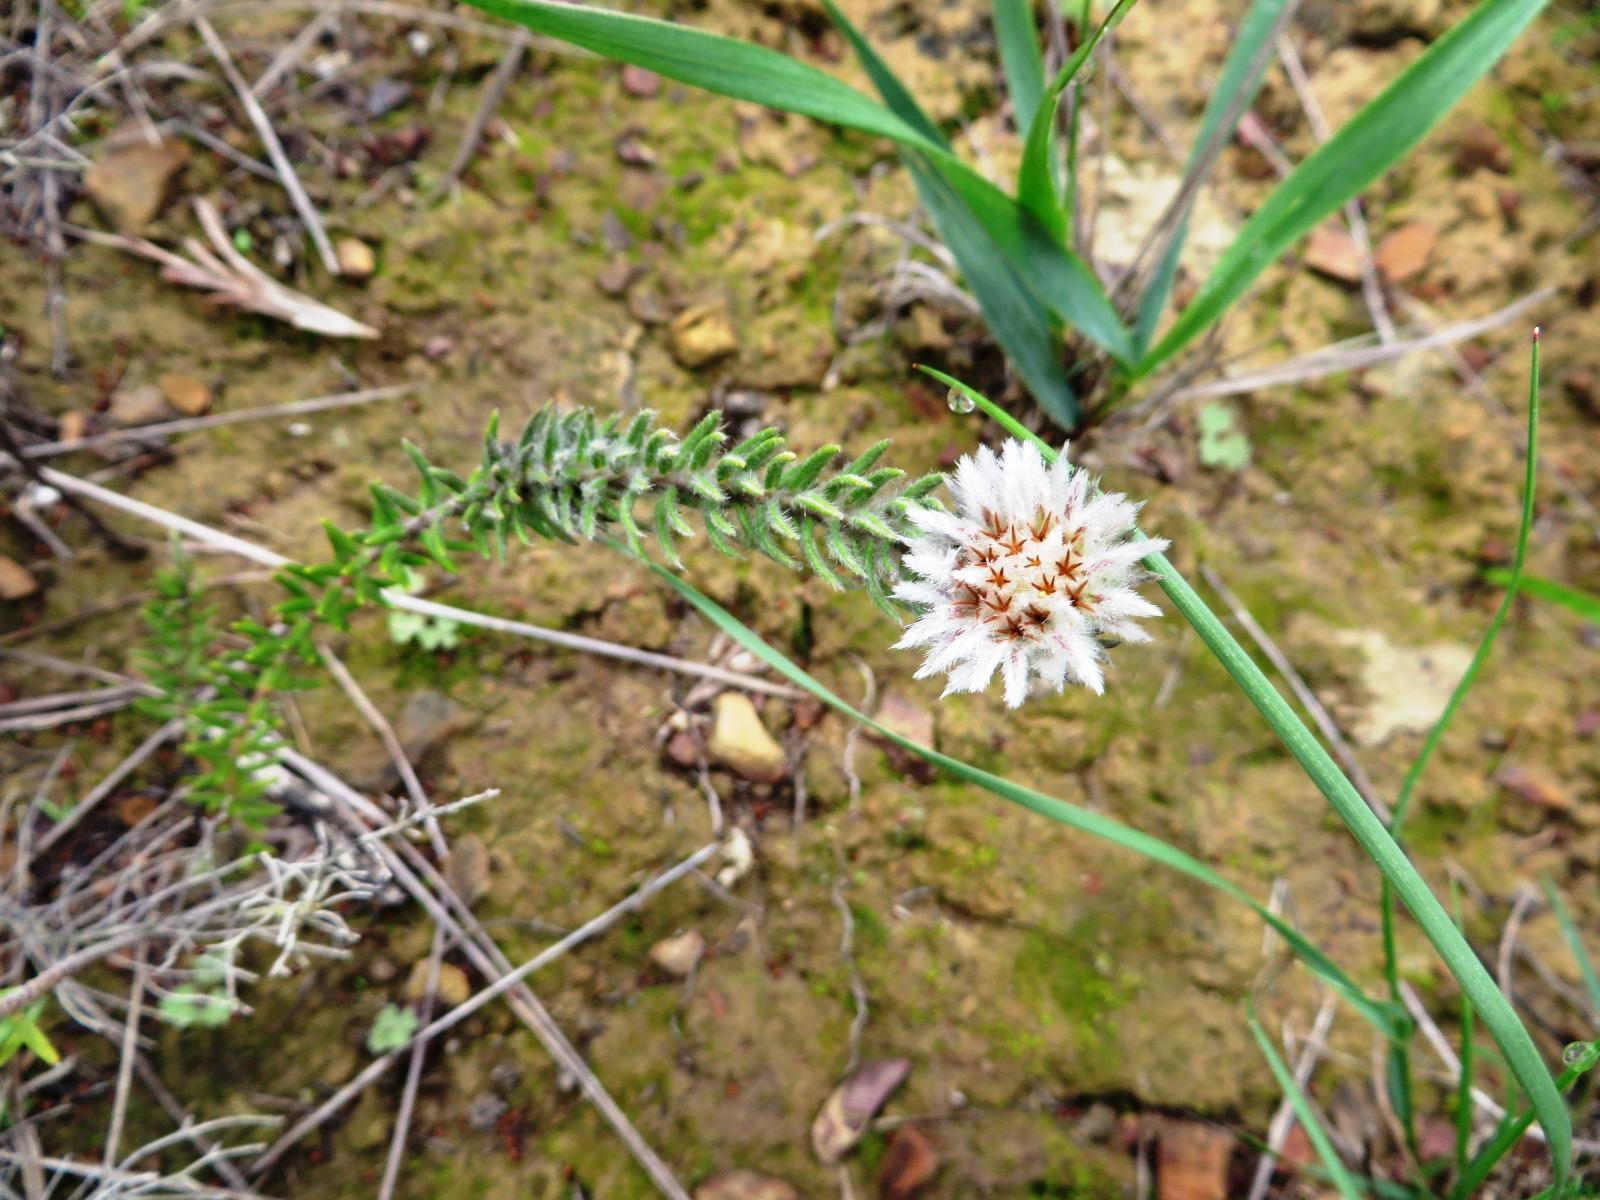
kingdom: Plantae
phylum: Tracheophyta
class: Magnoliopsida
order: Rosales
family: Rhamnaceae
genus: Phylica
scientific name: Phylica calcarata
